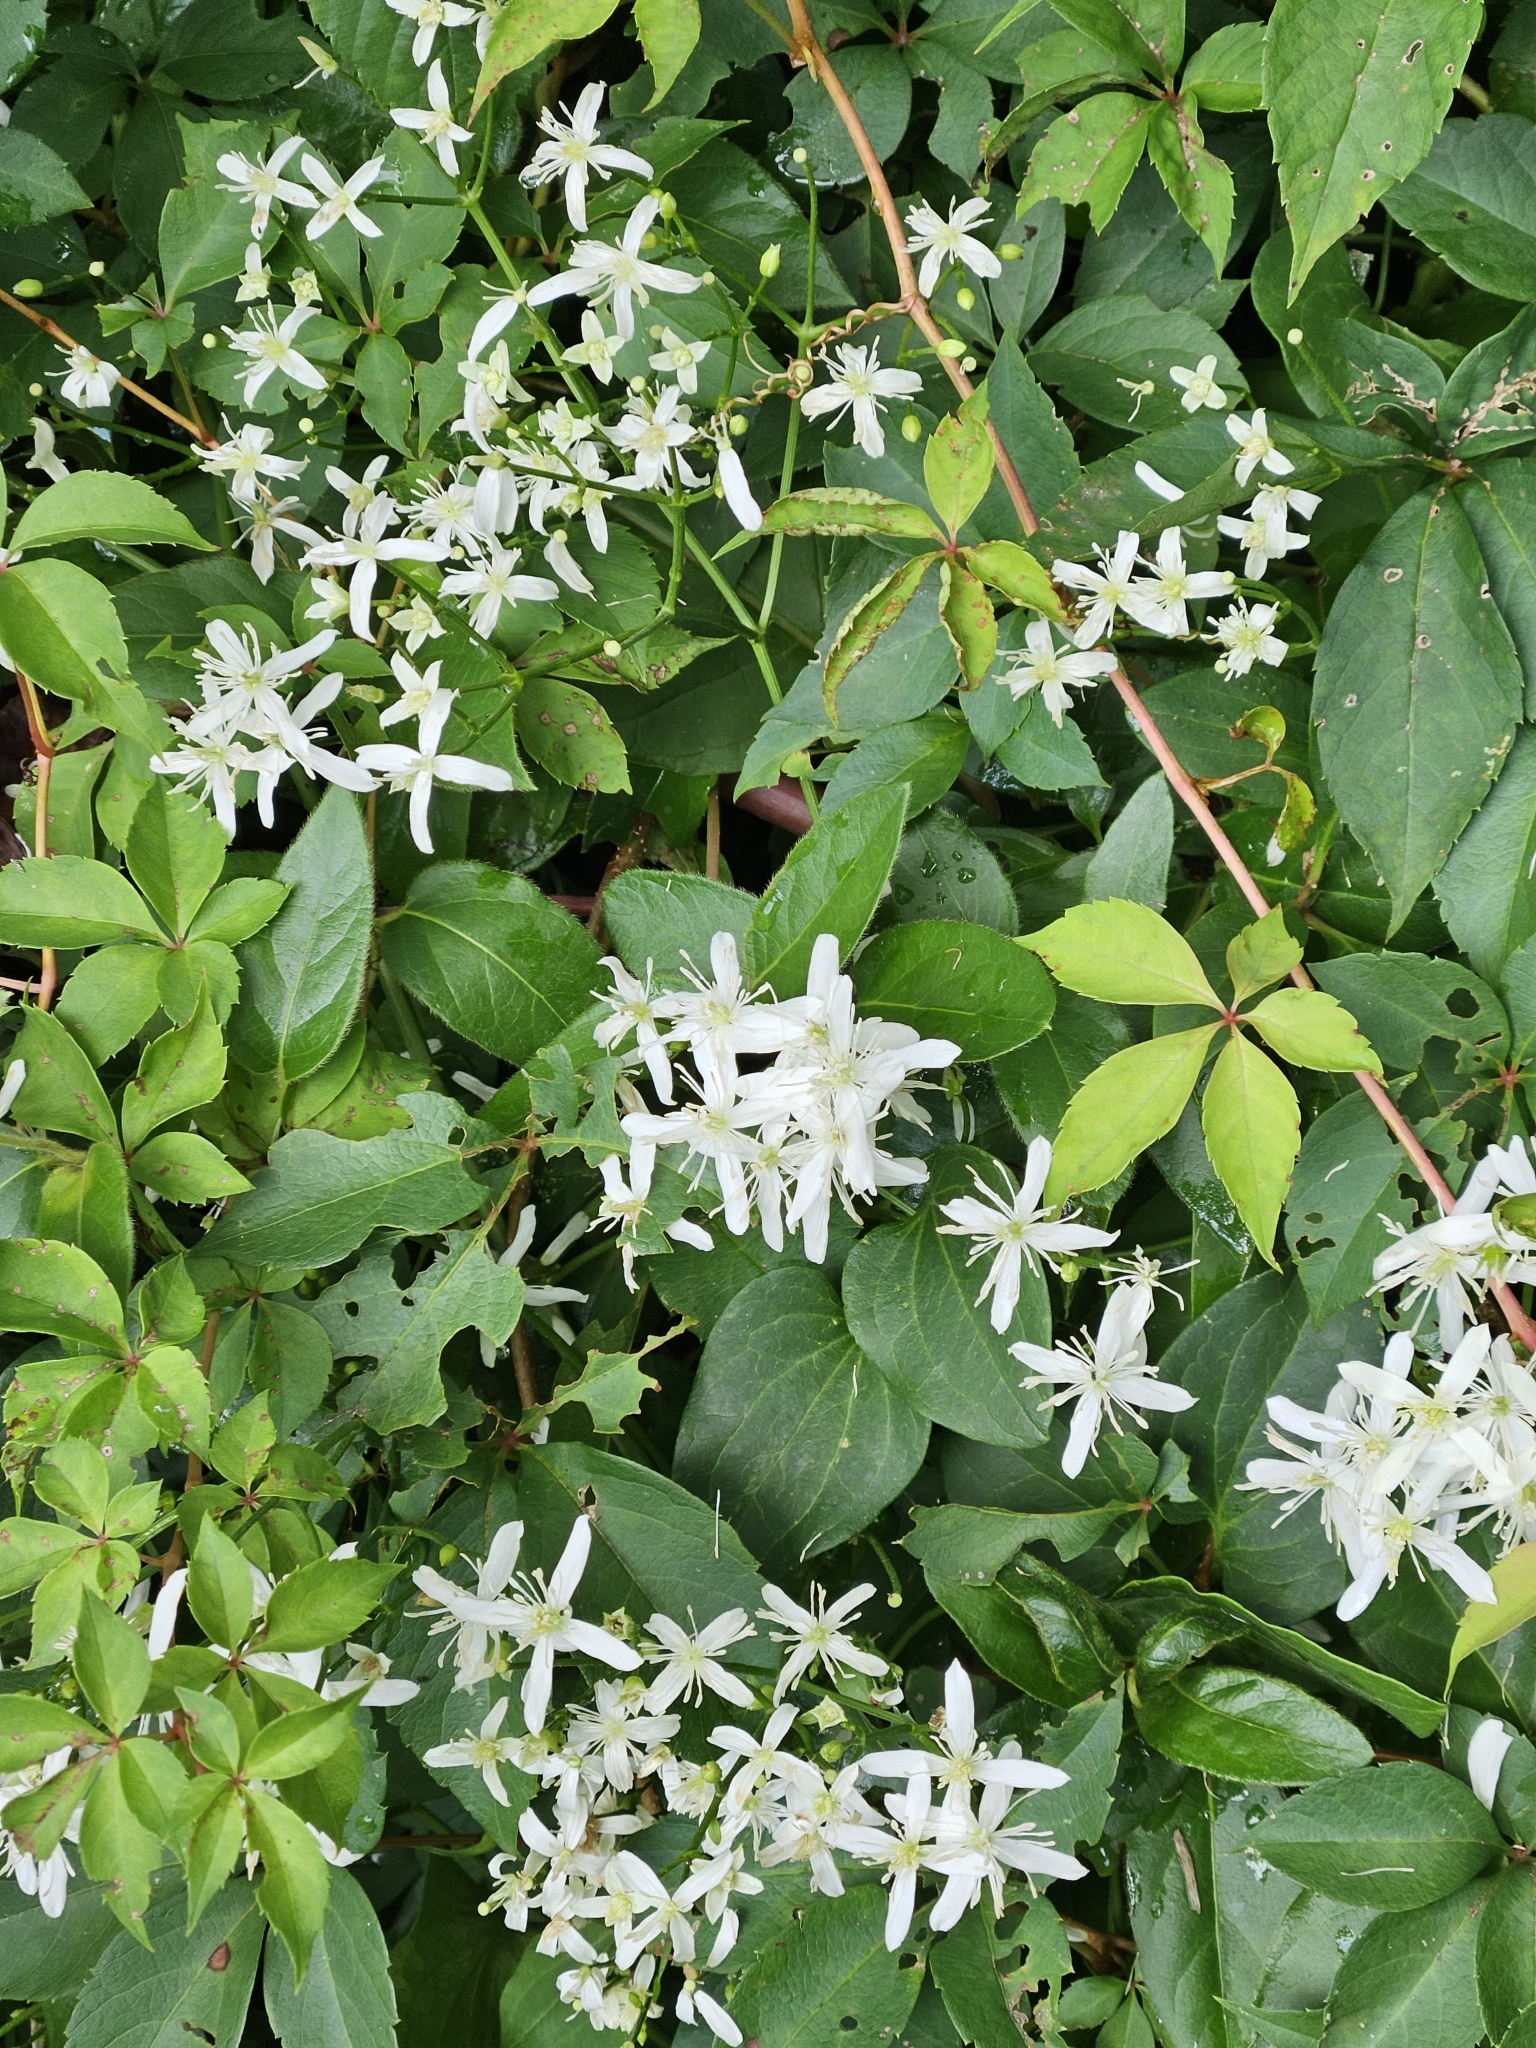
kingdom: Plantae
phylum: Tracheophyta
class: Magnoliopsida
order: Ranunculales
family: Ranunculaceae
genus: Clematis
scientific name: Clematis terniflora
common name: Sweet autumn clematis
